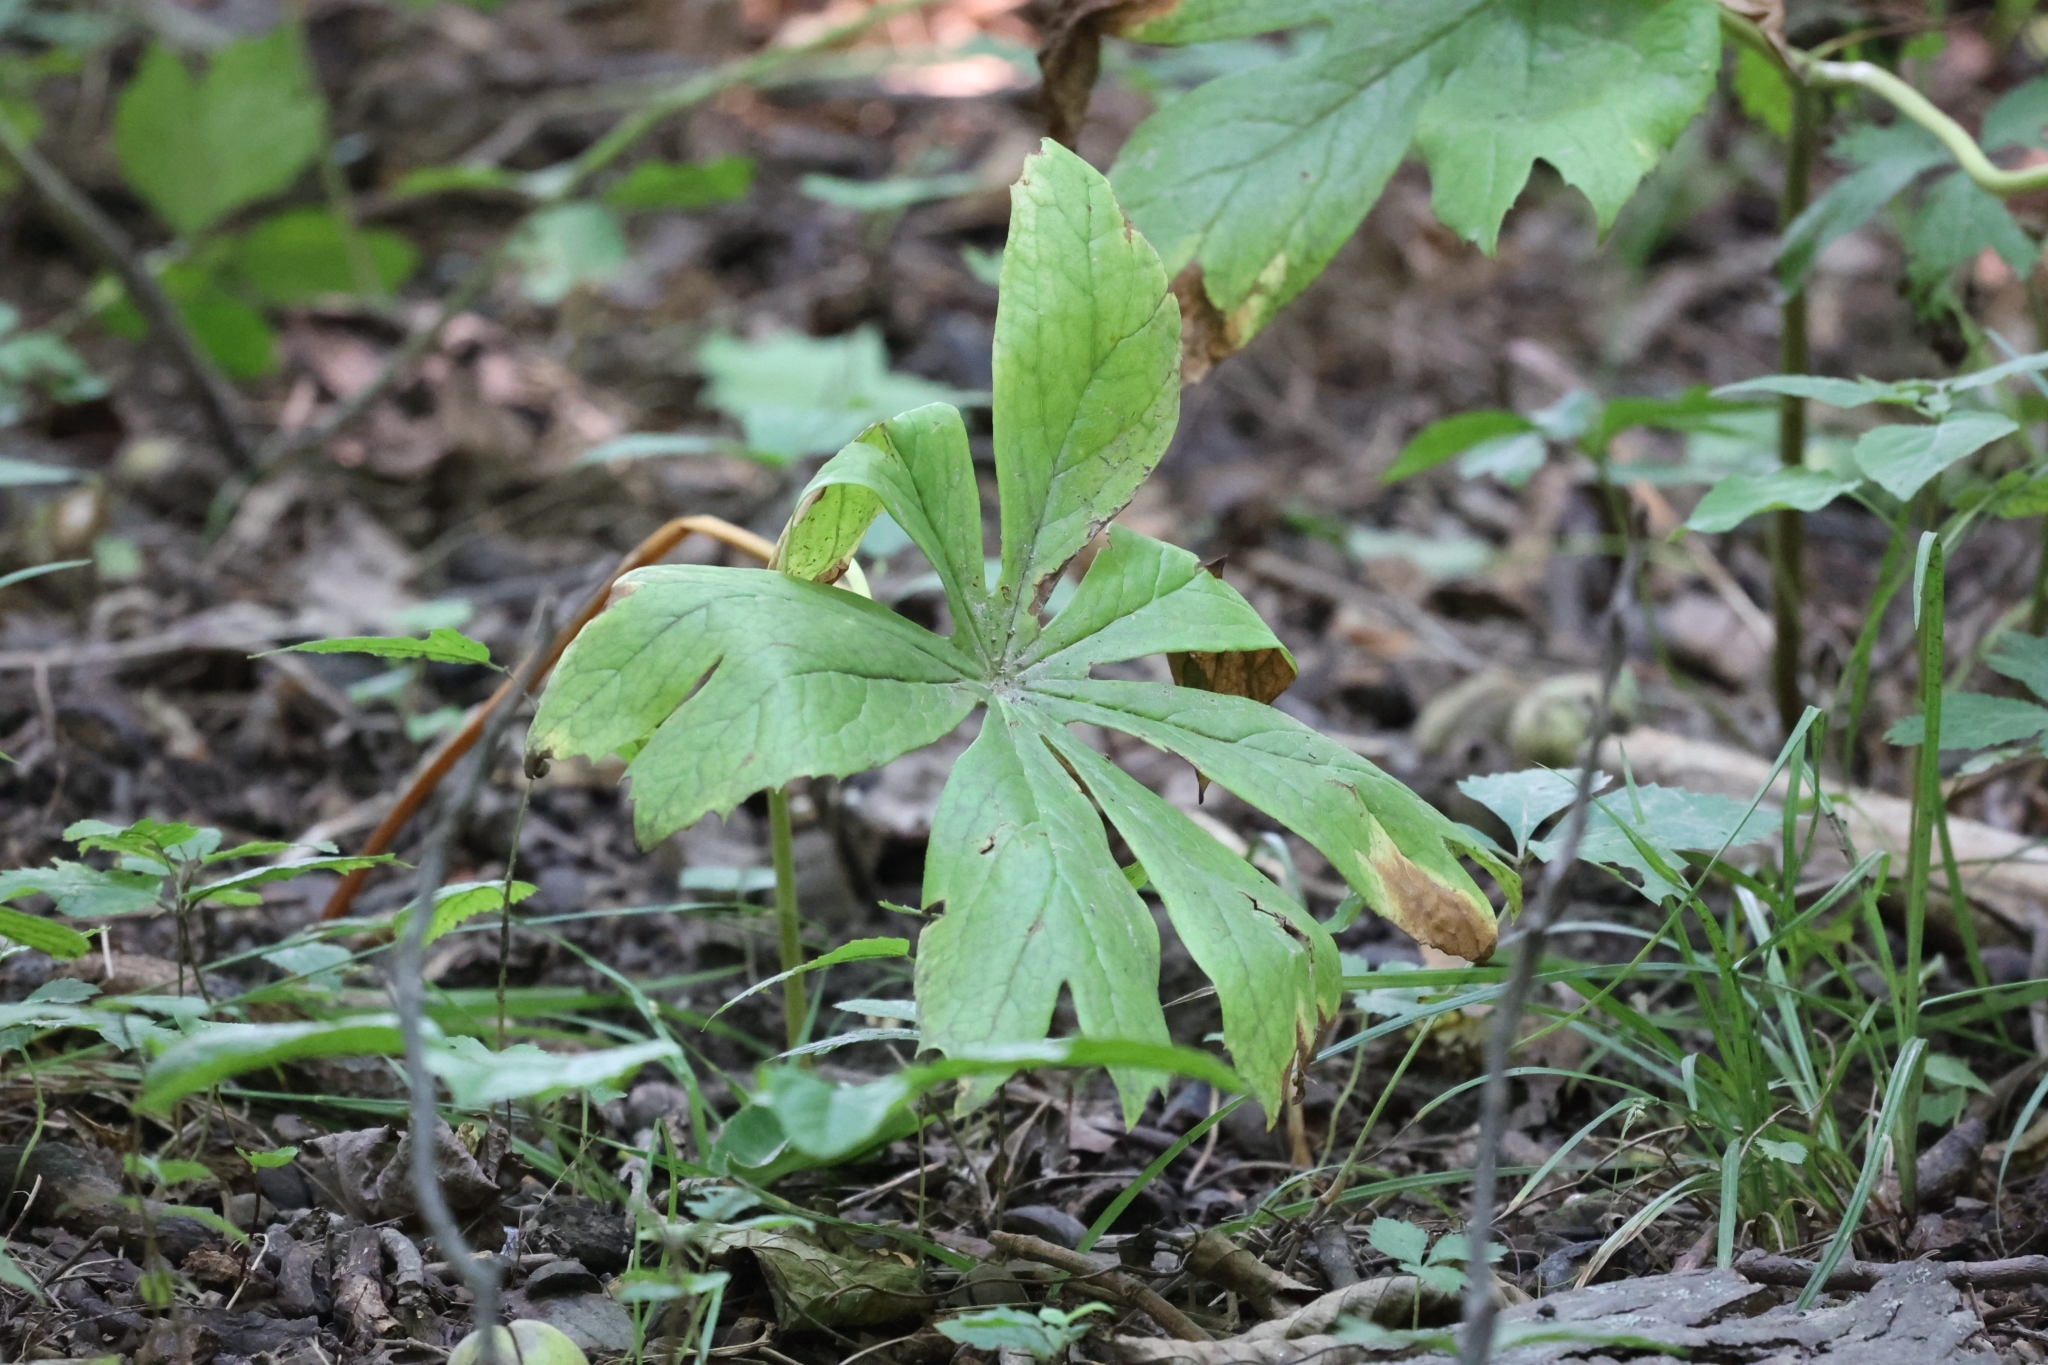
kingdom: Plantae
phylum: Tracheophyta
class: Magnoliopsida
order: Ranunculales
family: Berberidaceae
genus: Podophyllum
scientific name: Podophyllum peltatum
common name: Wild mandrake
